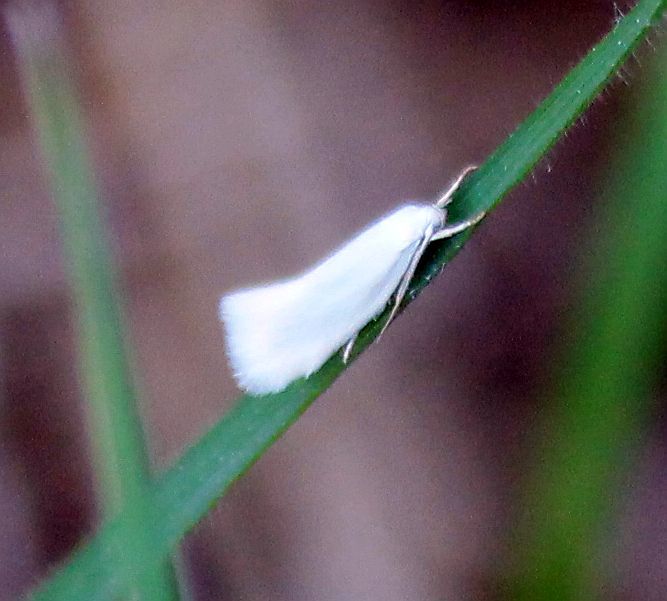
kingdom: Animalia
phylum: Arthropoda
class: Insecta
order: Lepidoptera
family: Elachistidae
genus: Elachista
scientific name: Elachista argentella
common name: Swan-feather dwarf
